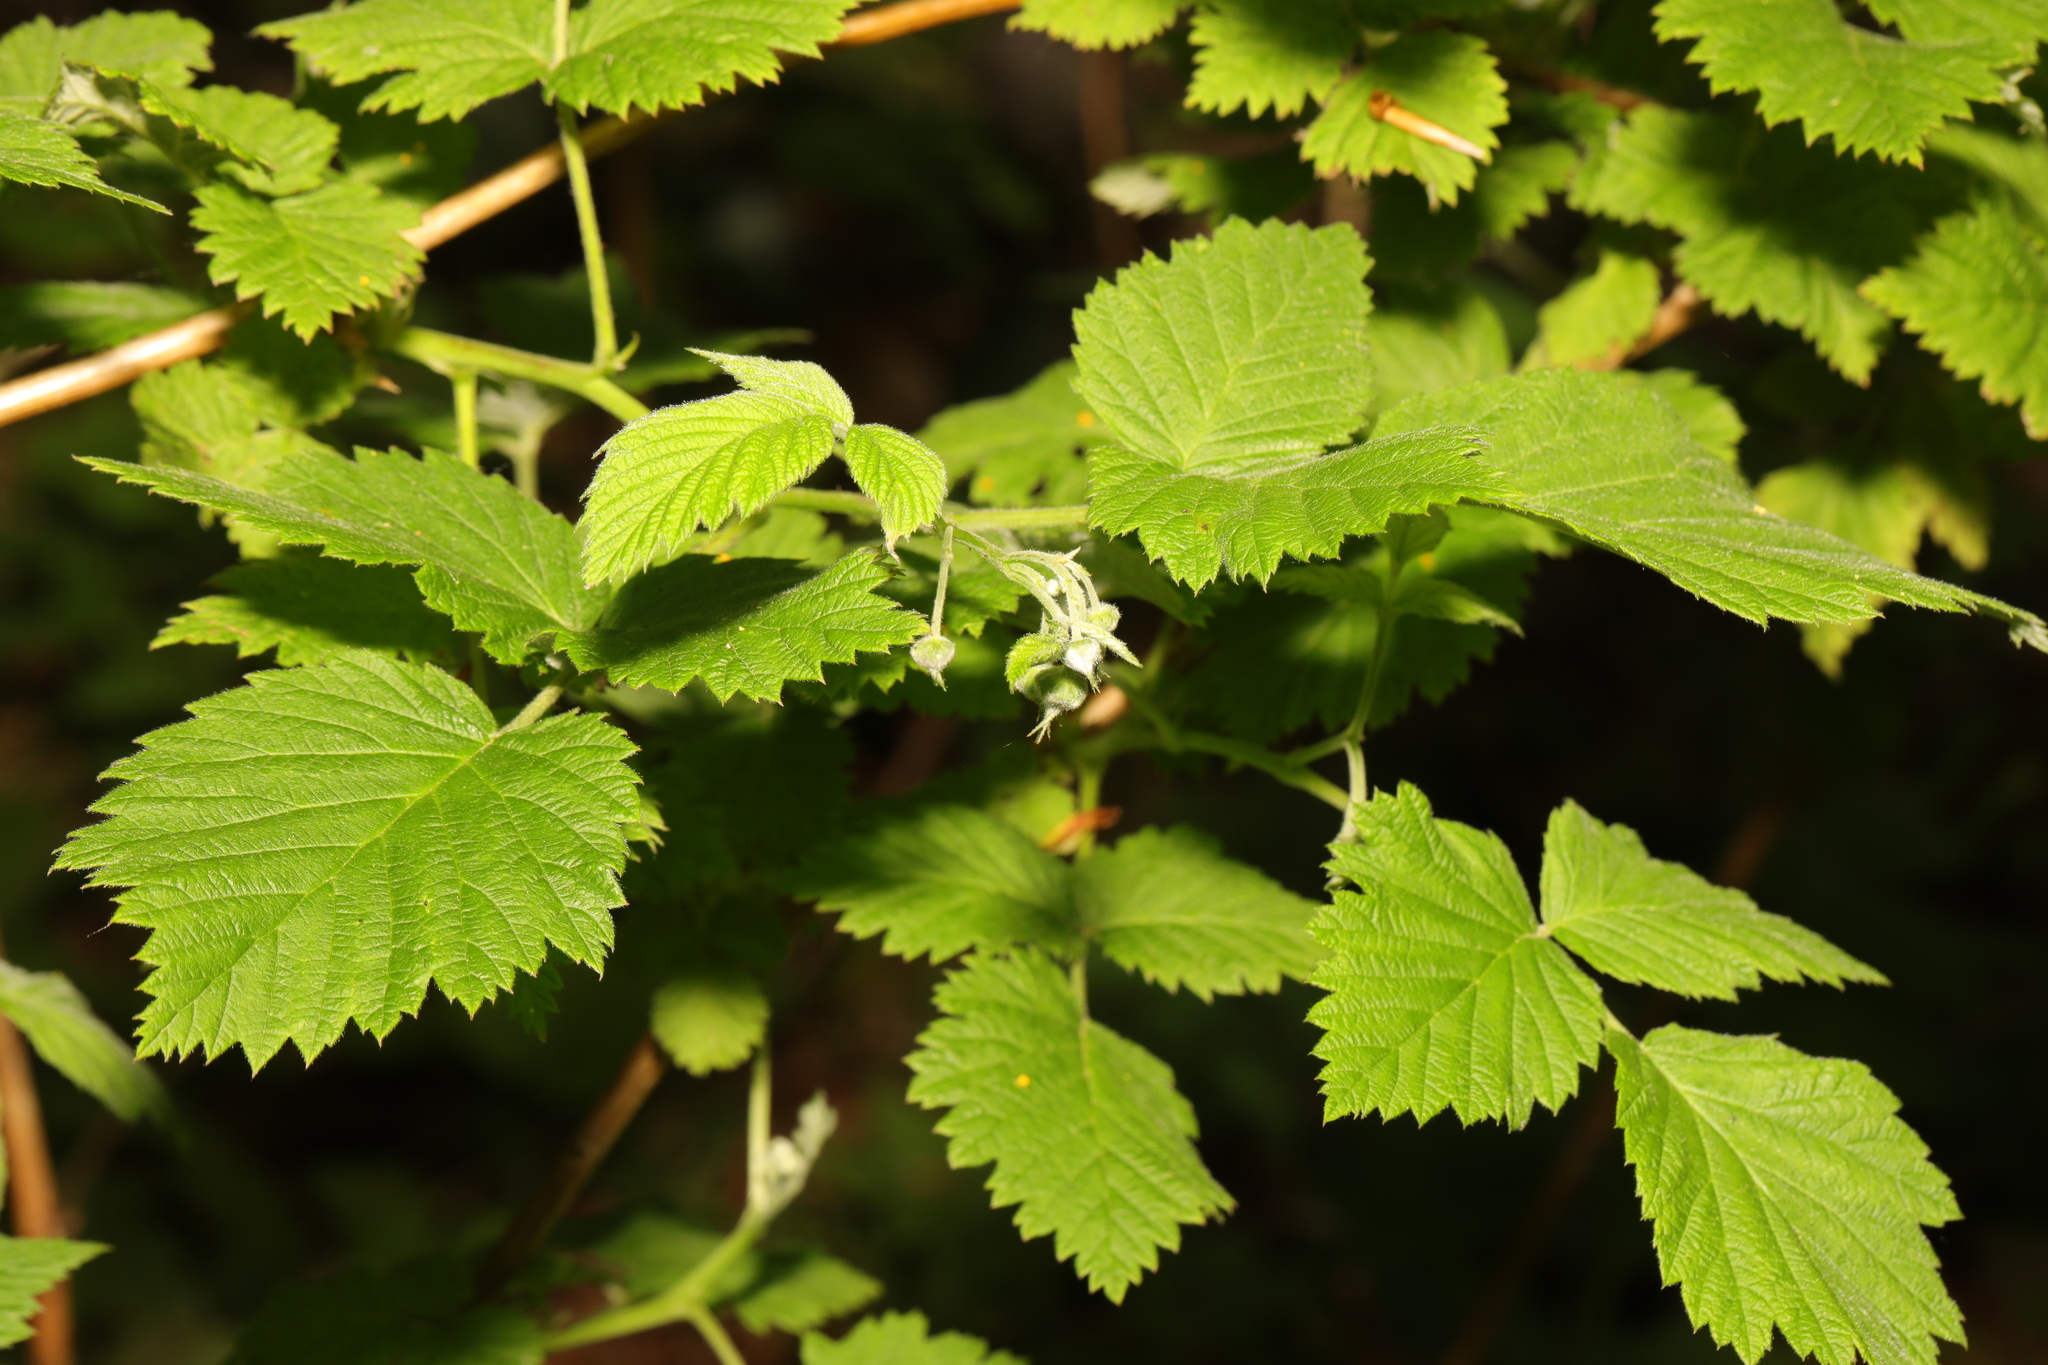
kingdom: Plantae
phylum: Tracheophyta
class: Magnoliopsida
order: Rosales
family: Rosaceae
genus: Rubus
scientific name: Rubus idaeus
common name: Raspberry
